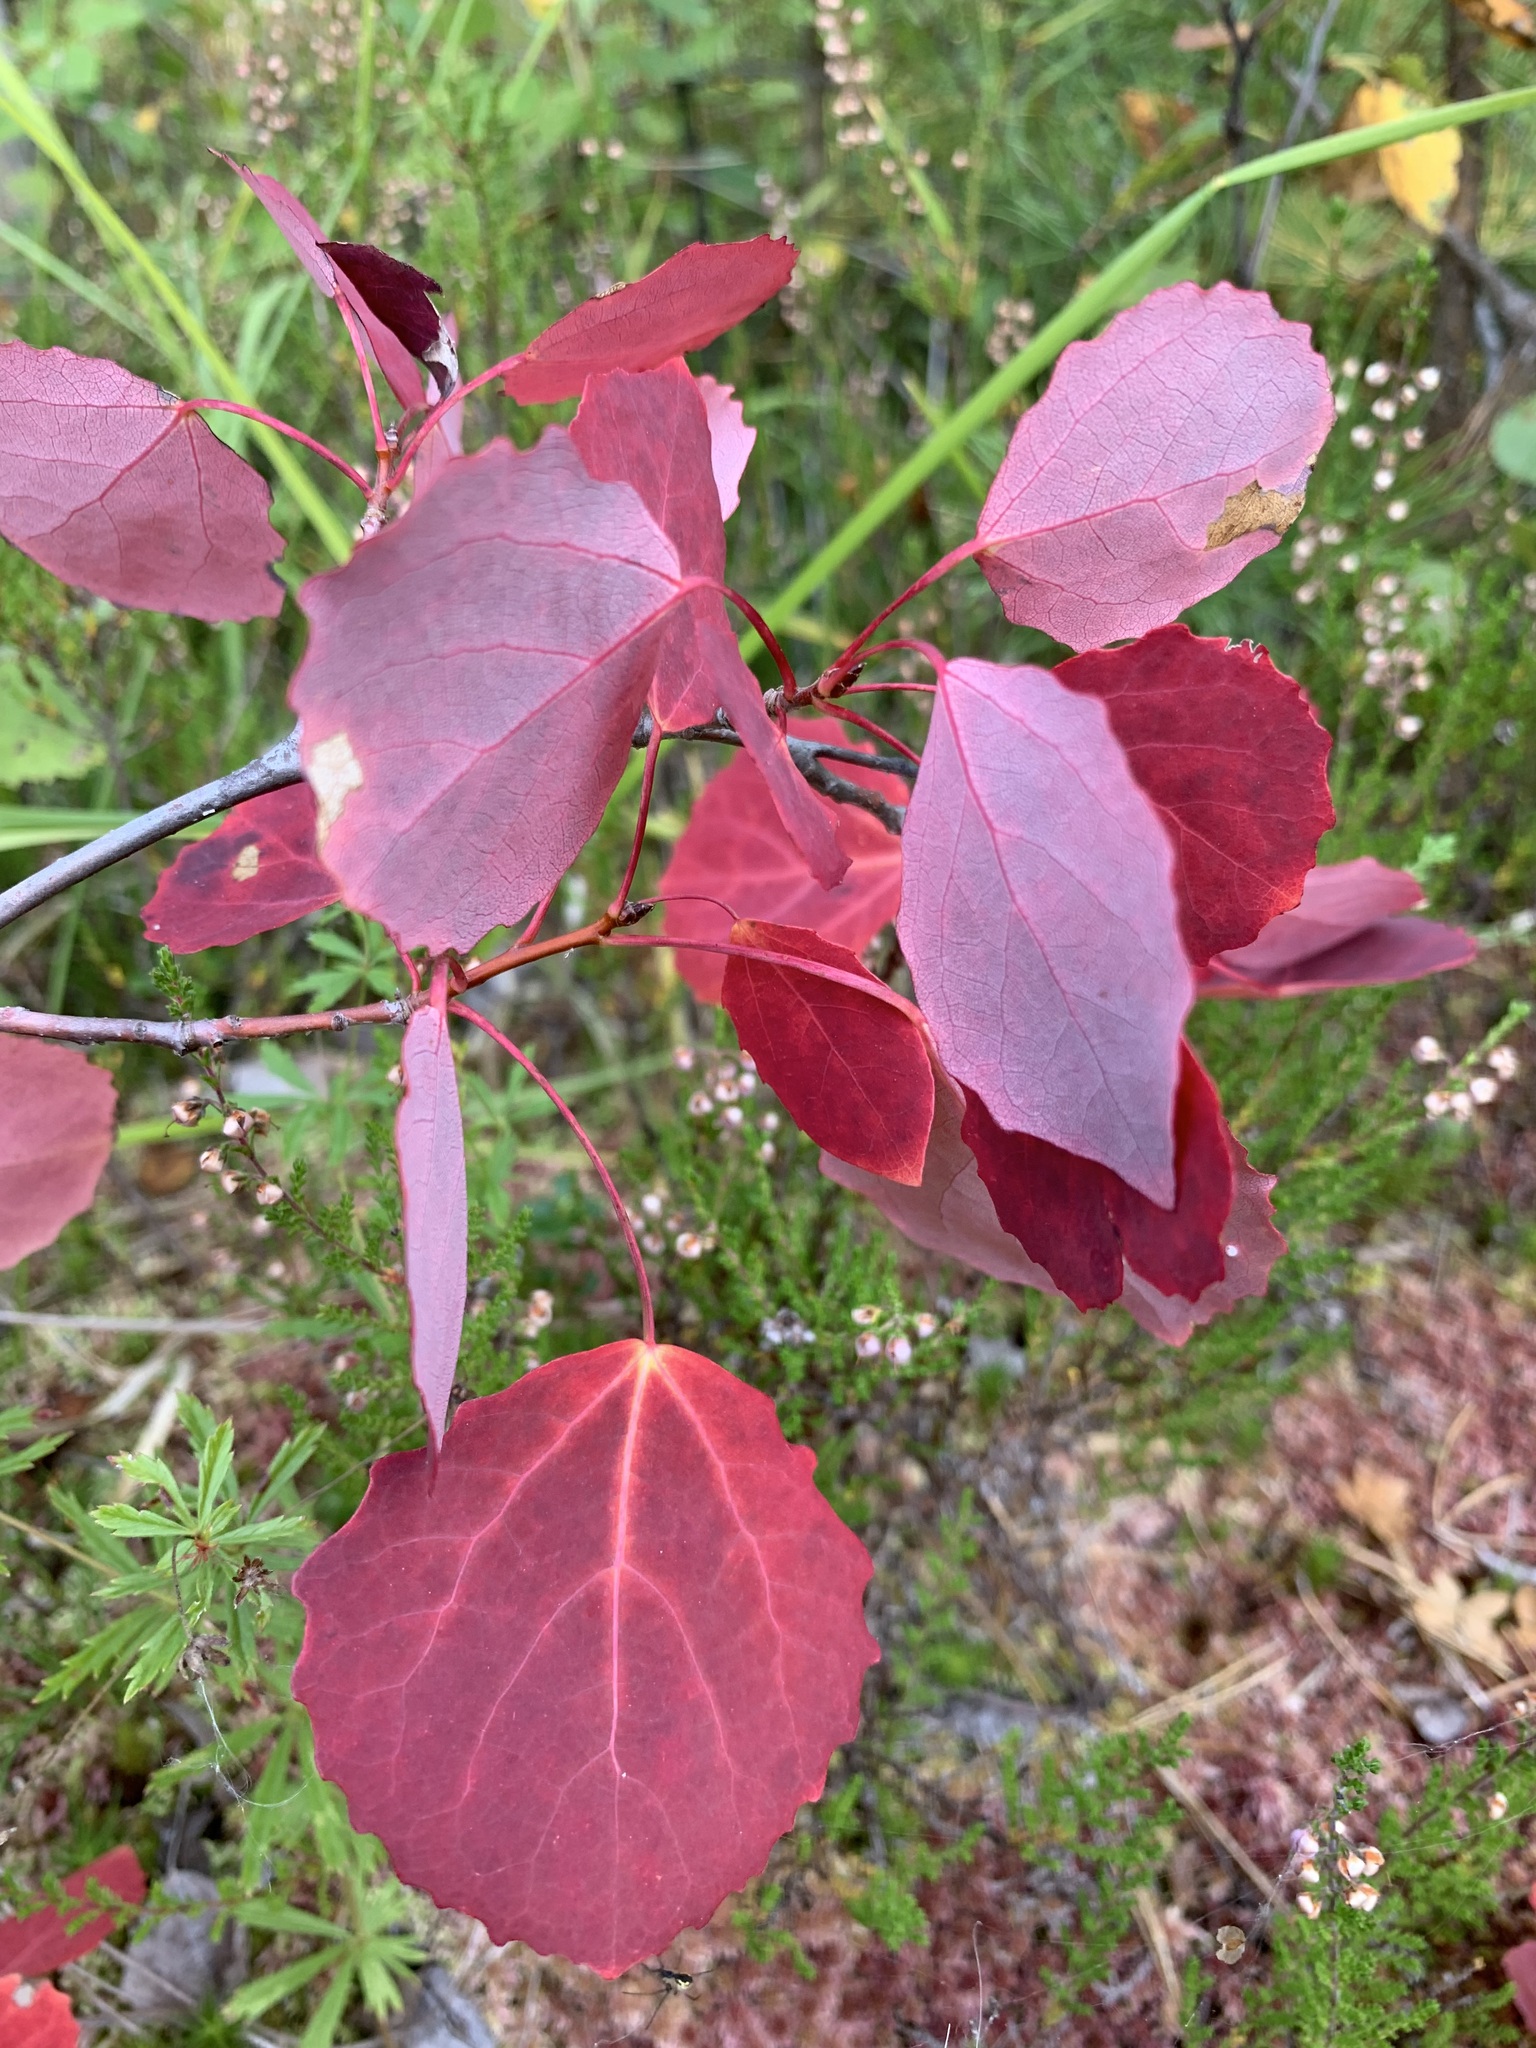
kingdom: Plantae
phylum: Tracheophyta
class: Magnoliopsida
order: Malpighiales
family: Salicaceae
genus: Populus
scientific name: Populus tremula
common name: European aspen
